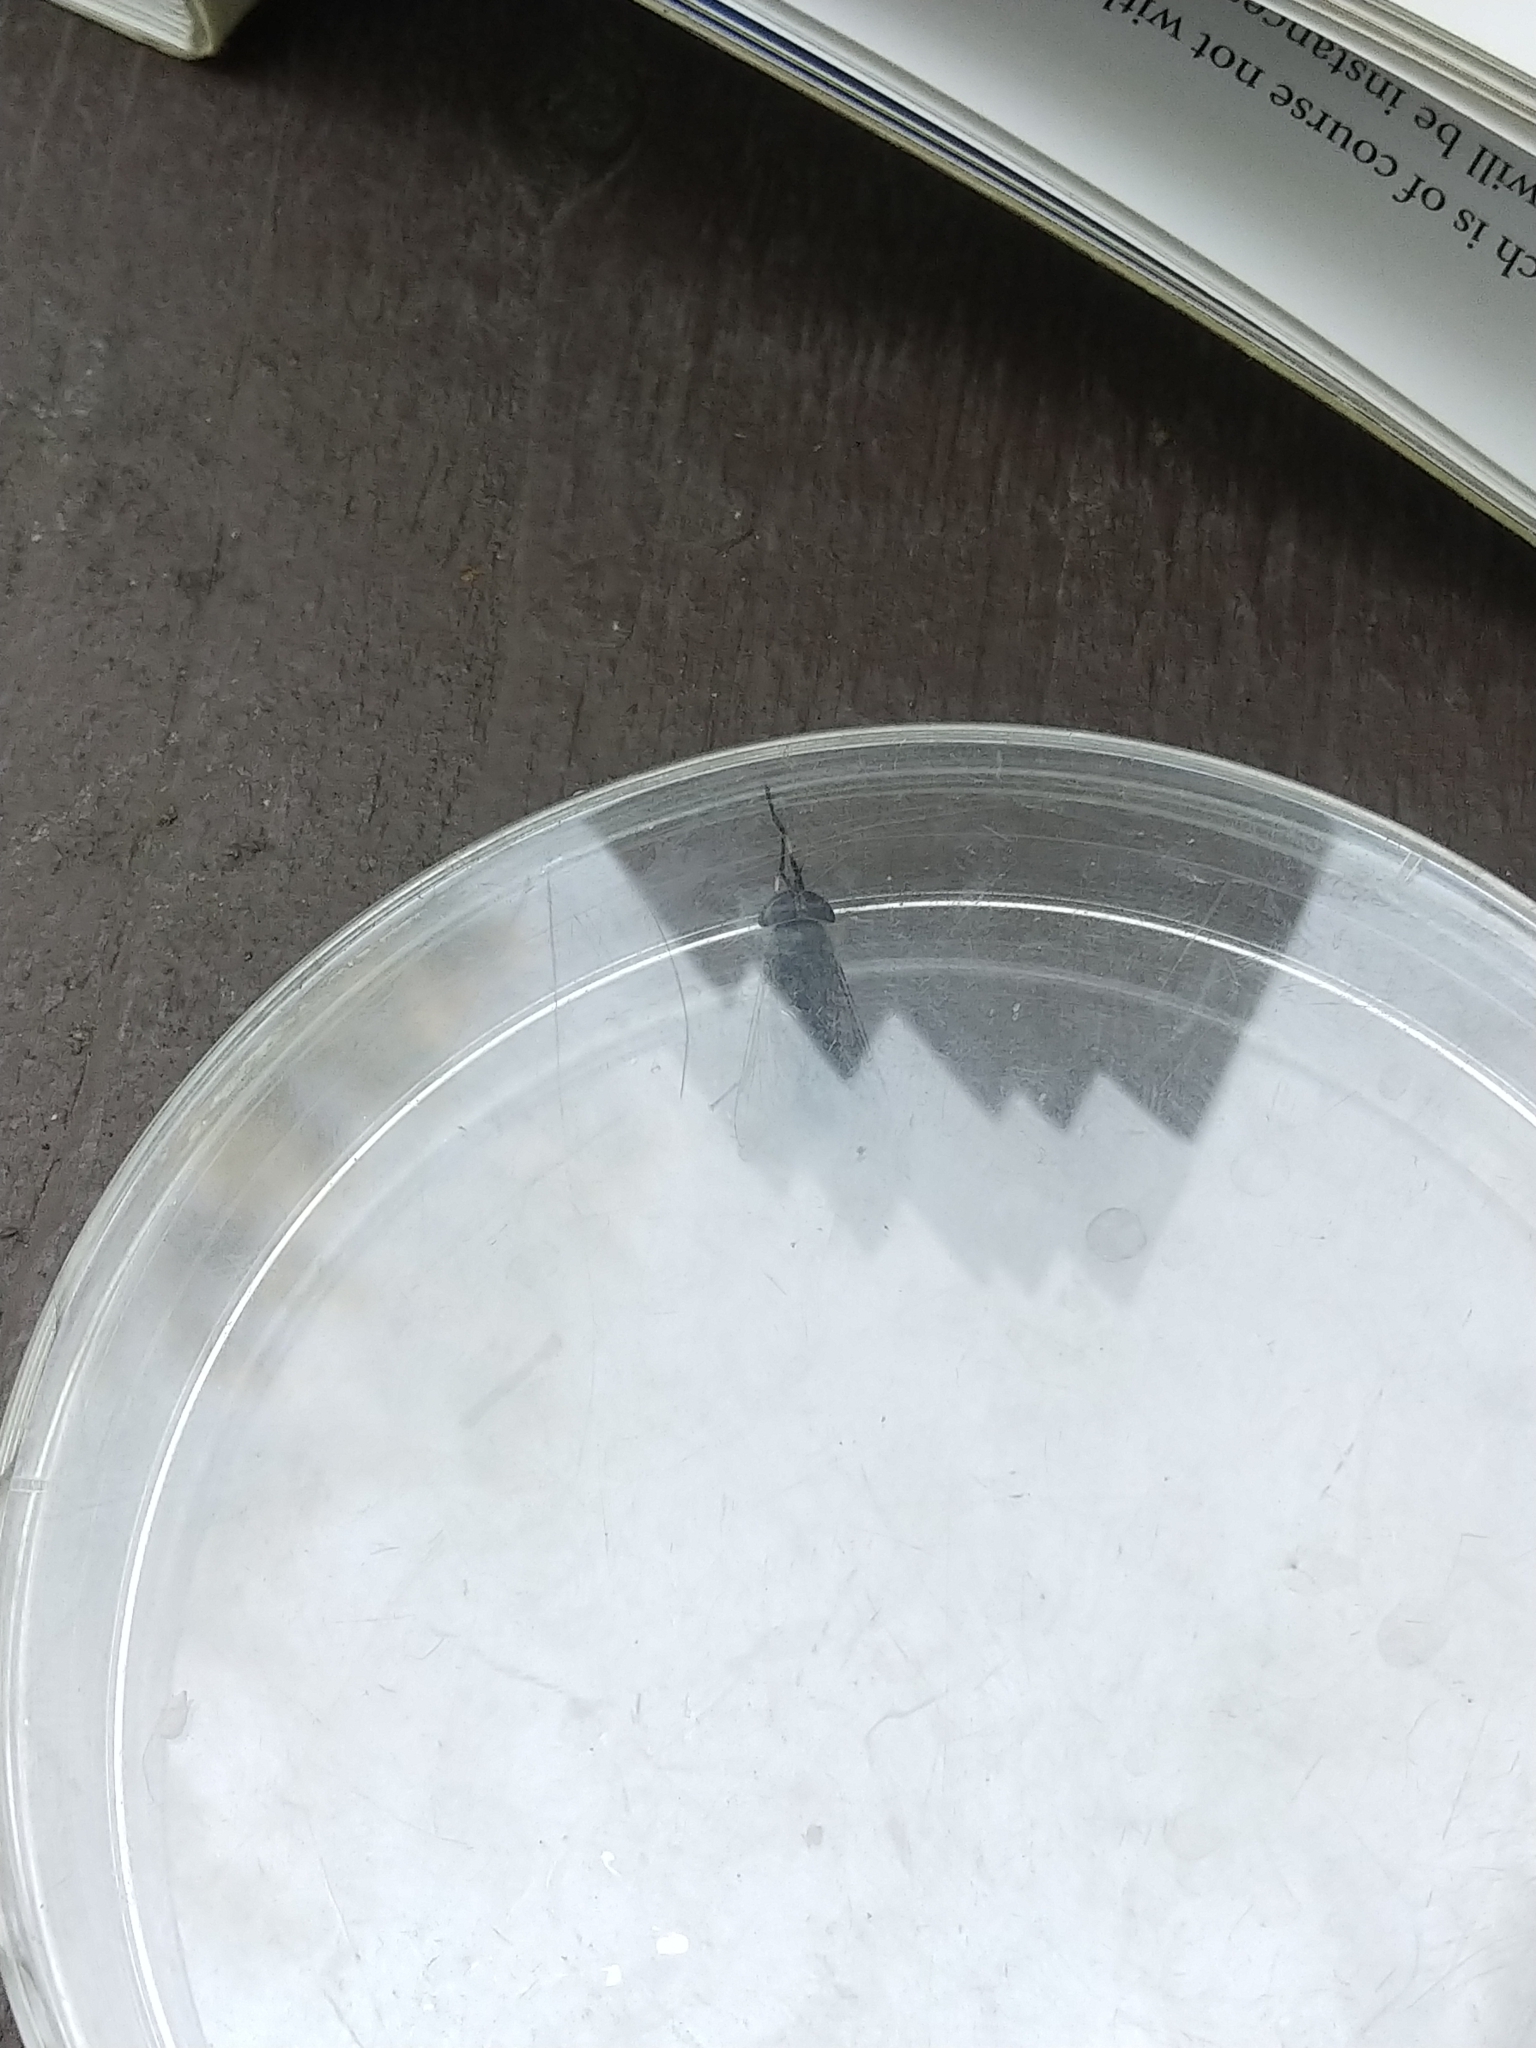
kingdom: Animalia
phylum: Arthropoda
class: Insecta
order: Diptera
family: Tabanidae
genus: Tabanus
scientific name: Tabanus lineola
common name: Striped horse fly
